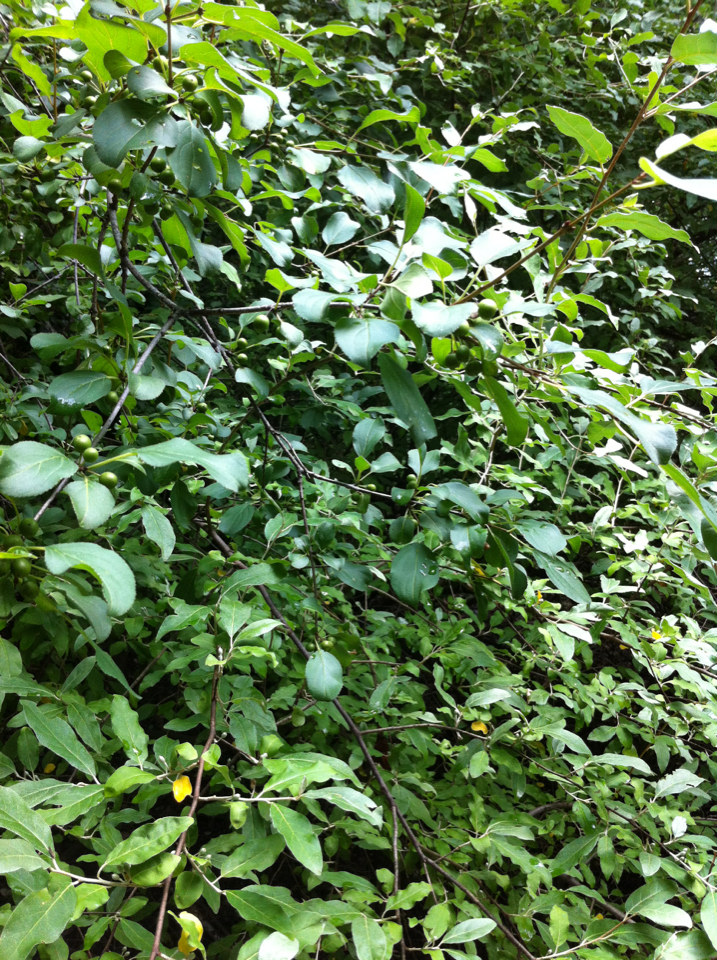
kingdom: Plantae
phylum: Tracheophyta
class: Magnoliopsida
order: Rosales
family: Elaeagnaceae
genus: Elaeagnus
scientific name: Elaeagnus umbellata
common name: Autumn olive
